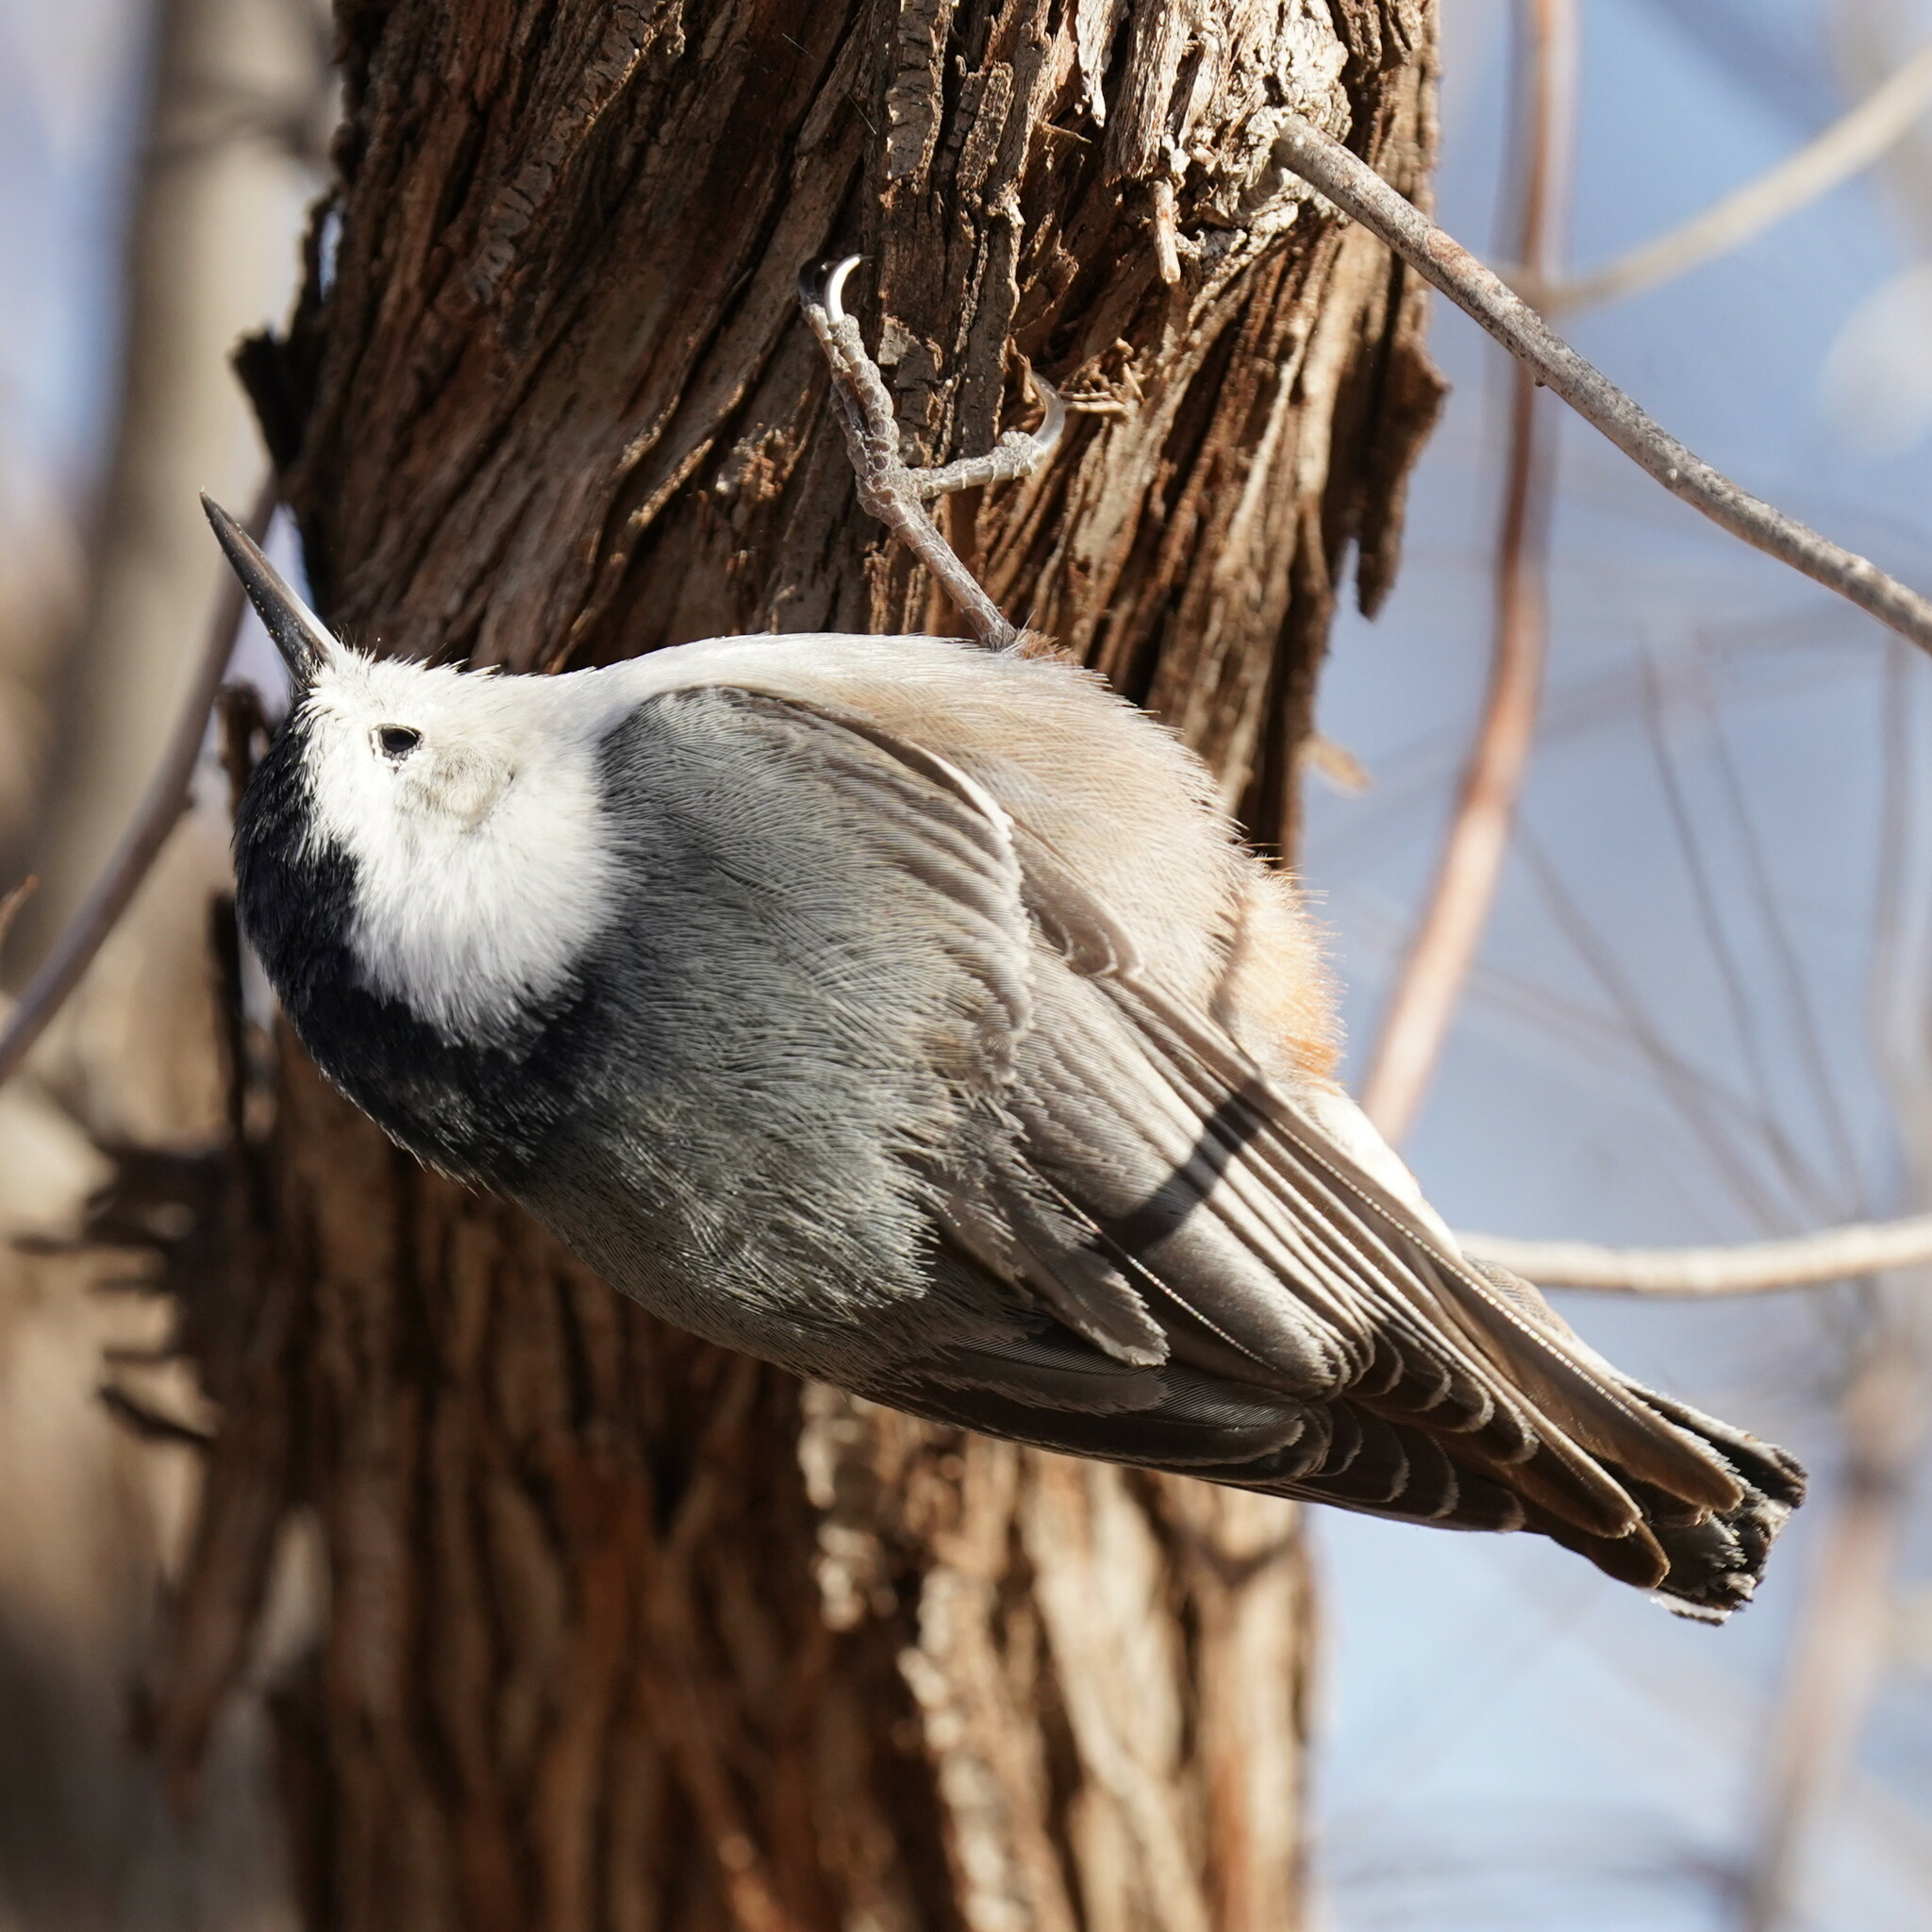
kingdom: Animalia
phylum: Chordata
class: Aves
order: Passeriformes
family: Sittidae
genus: Sitta
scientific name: Sitta carolinensis
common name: White-breasted nuthatch
